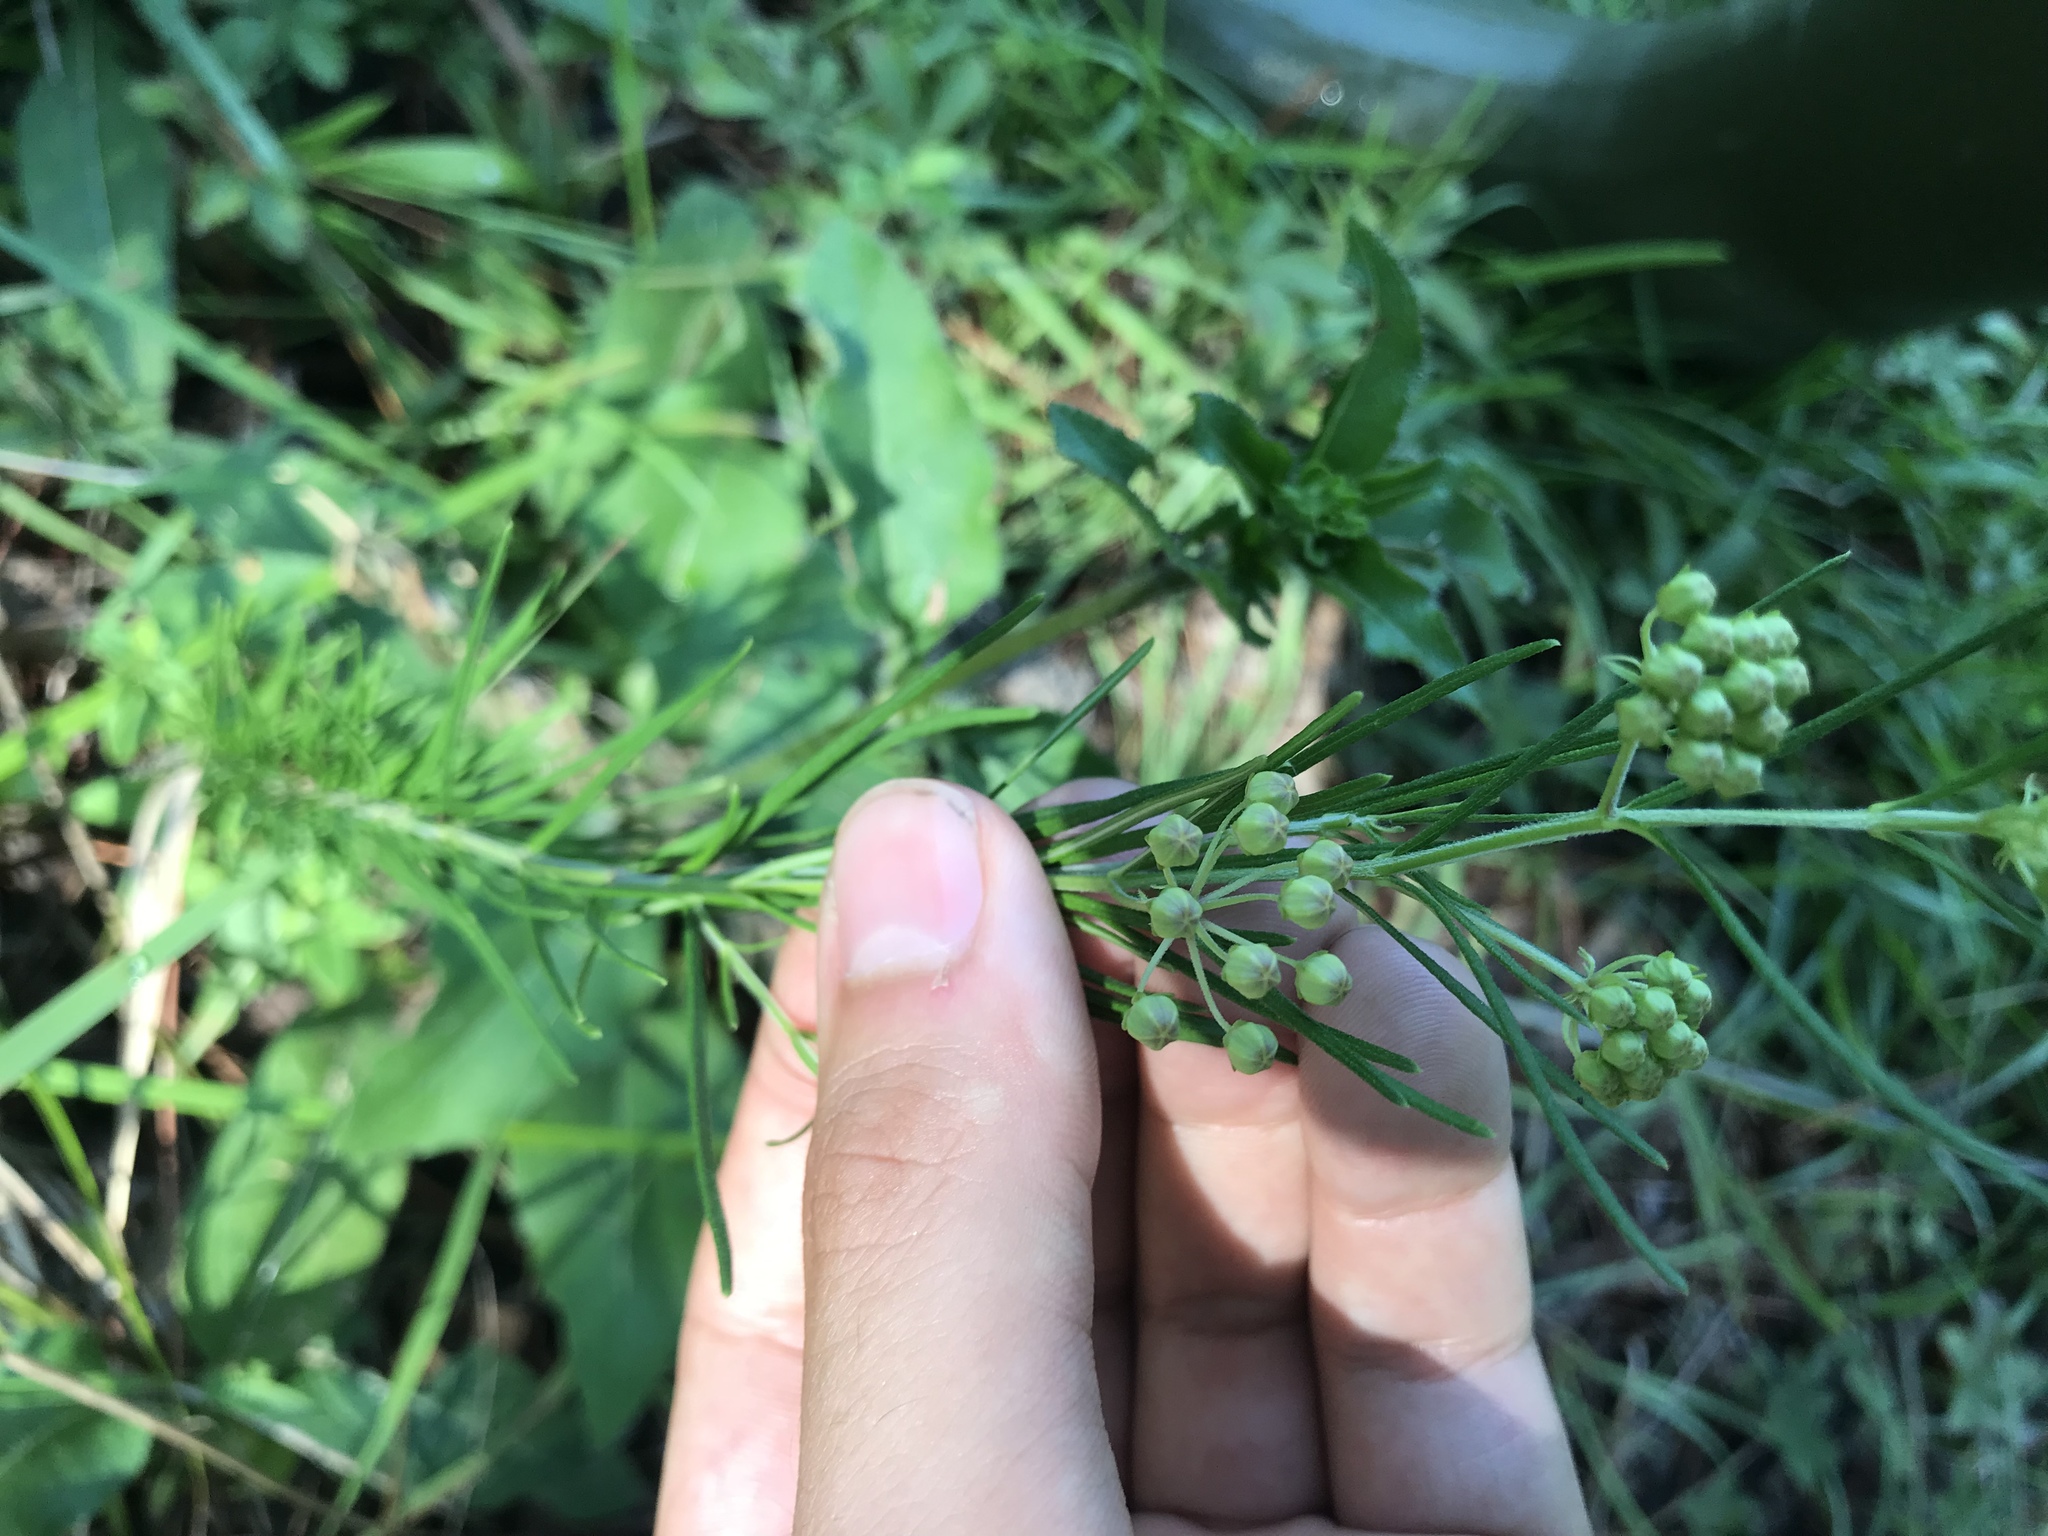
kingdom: Plantae
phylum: Tracheophyta
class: Magnoliopsida
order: Gentianales
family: Apocynaceae
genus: Asclepias
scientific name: Asclepias verticillata
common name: Eastern whorled milkweed
